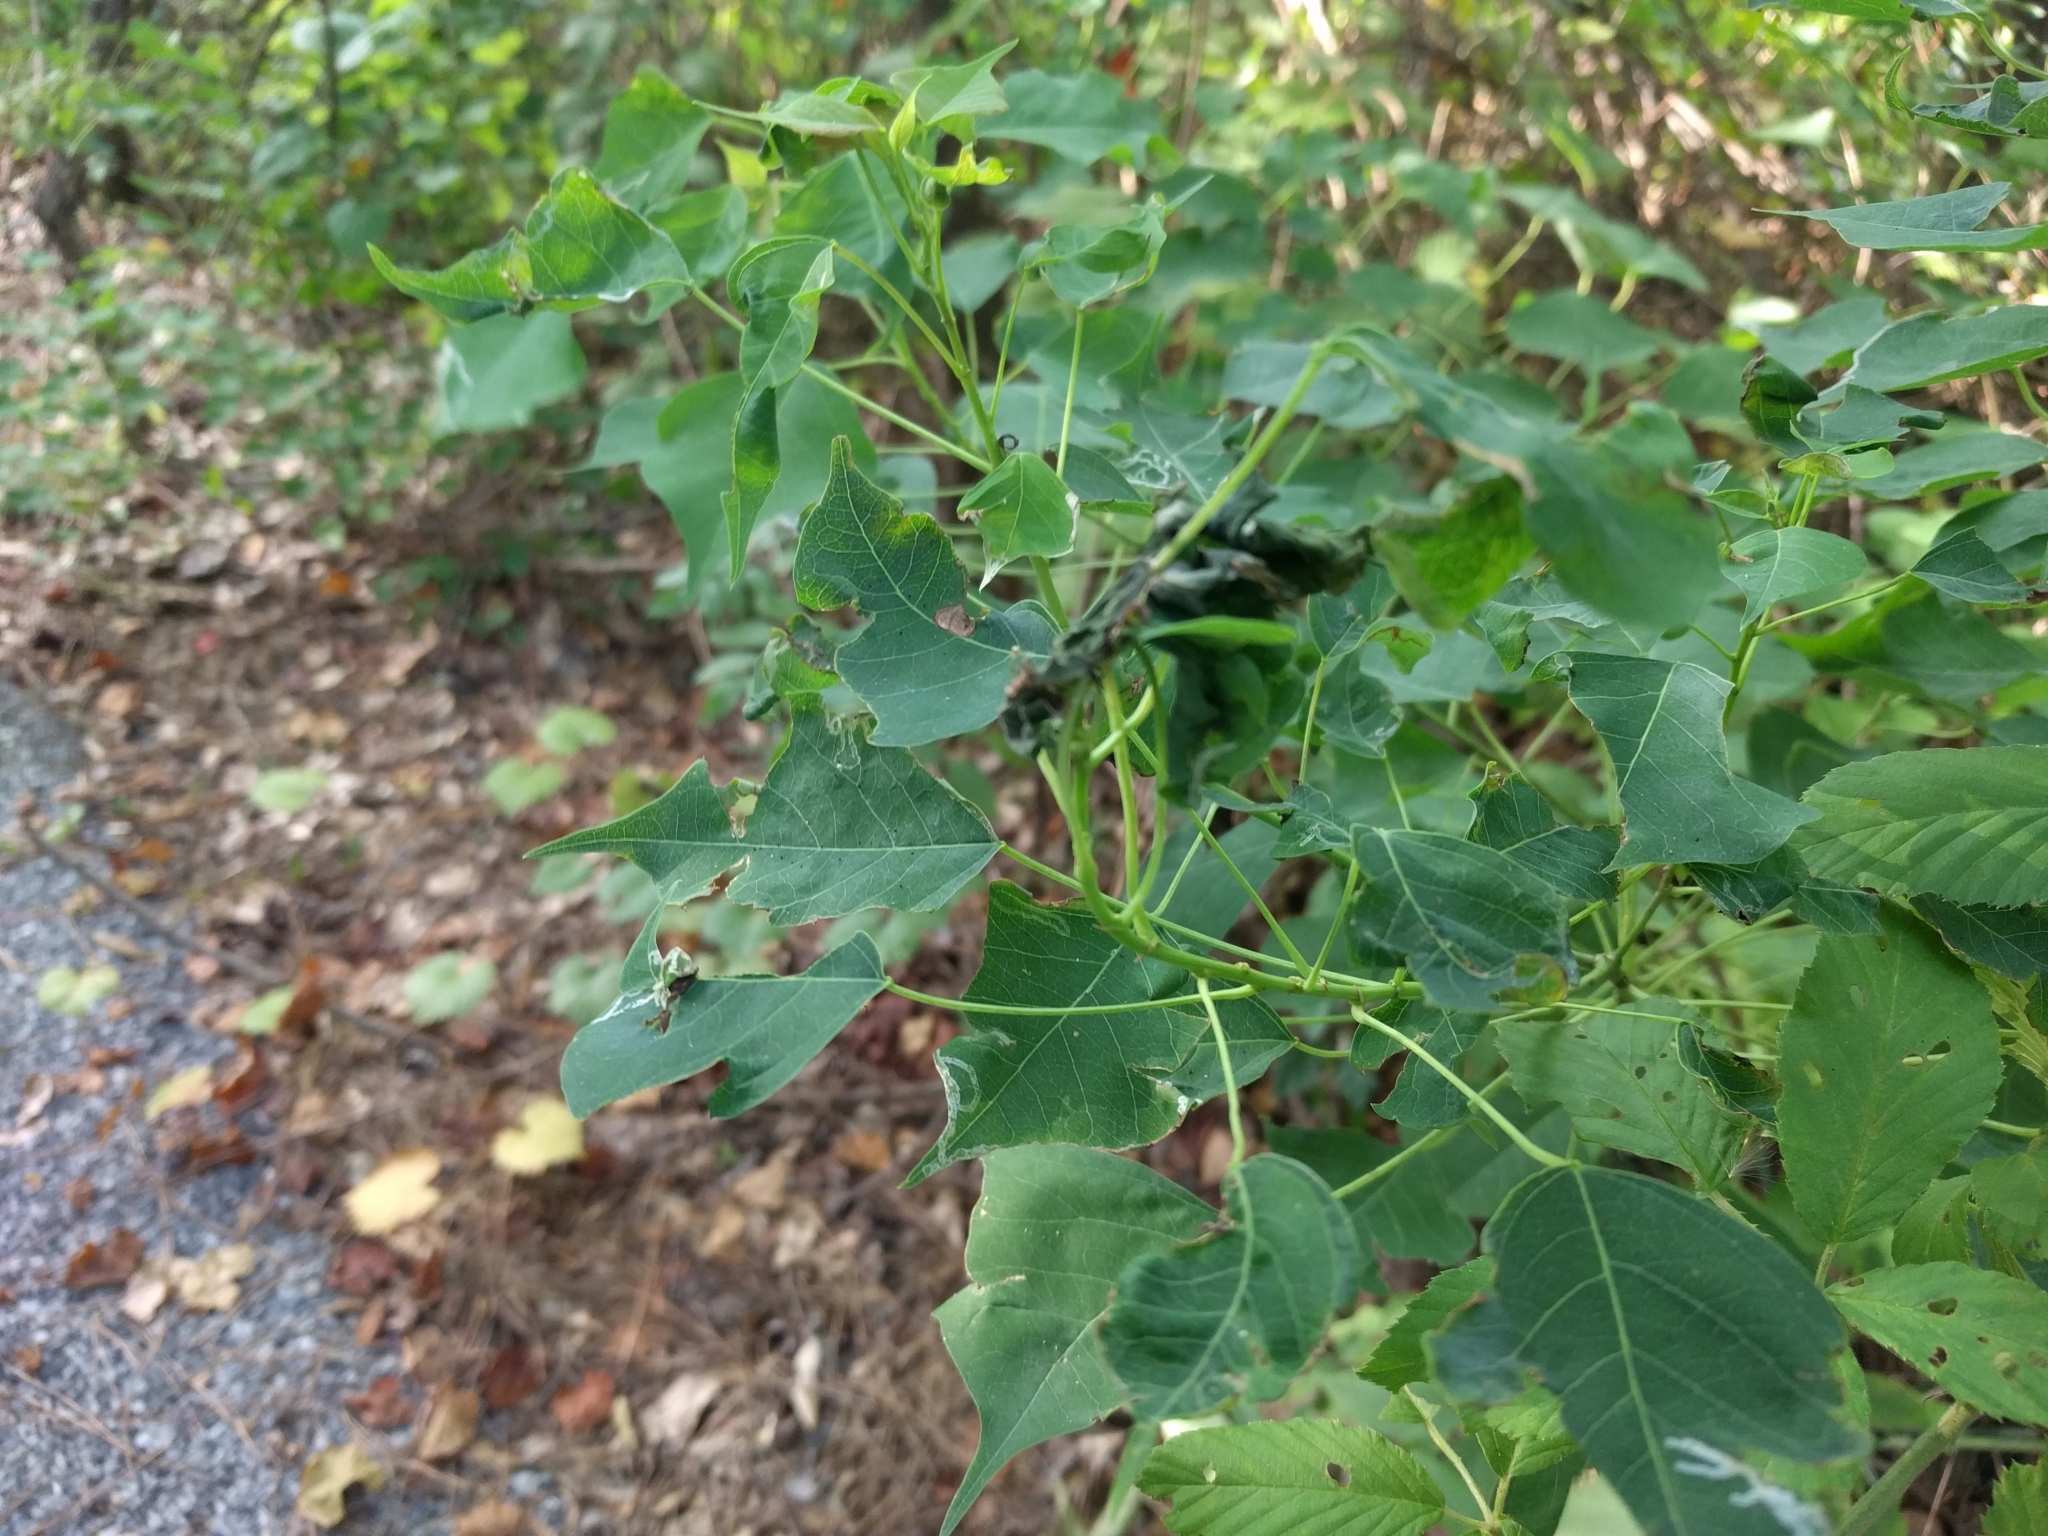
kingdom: Plantae
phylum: Tracheophyta
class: Magnoliopsida
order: Malpighiales
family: Euphorbiaceae
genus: Triadica
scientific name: Triadica sebifera
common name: Chinese tallow
